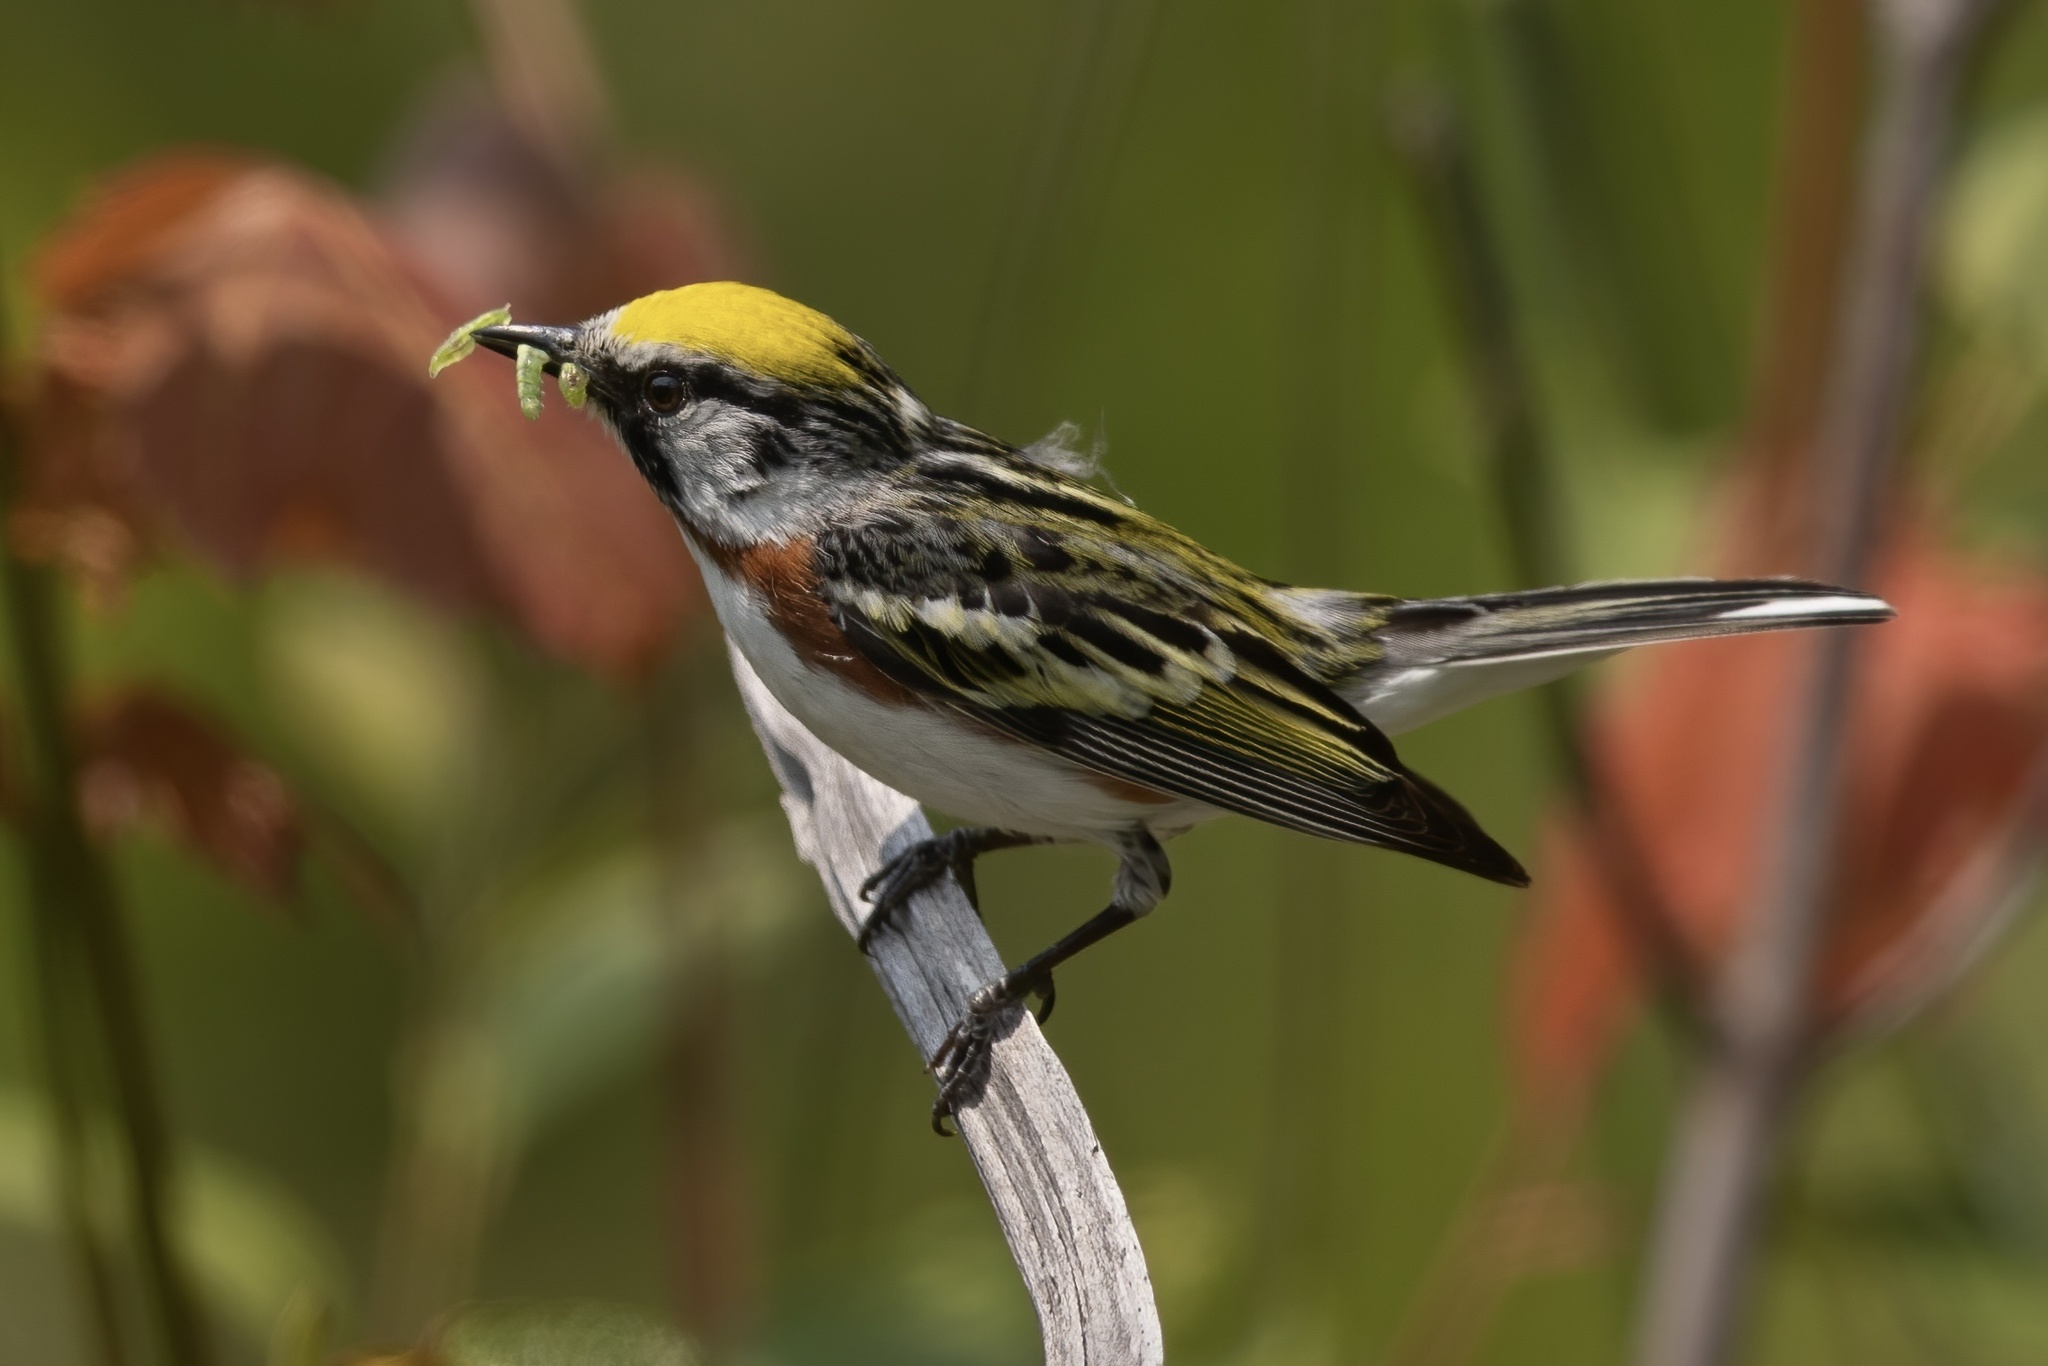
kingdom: Animalia
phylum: Chordata
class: Aves
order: Passeriformes
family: Parulidae
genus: Setophaga
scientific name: Setophaga pensylvanica
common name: Chestnut-sided warbler
